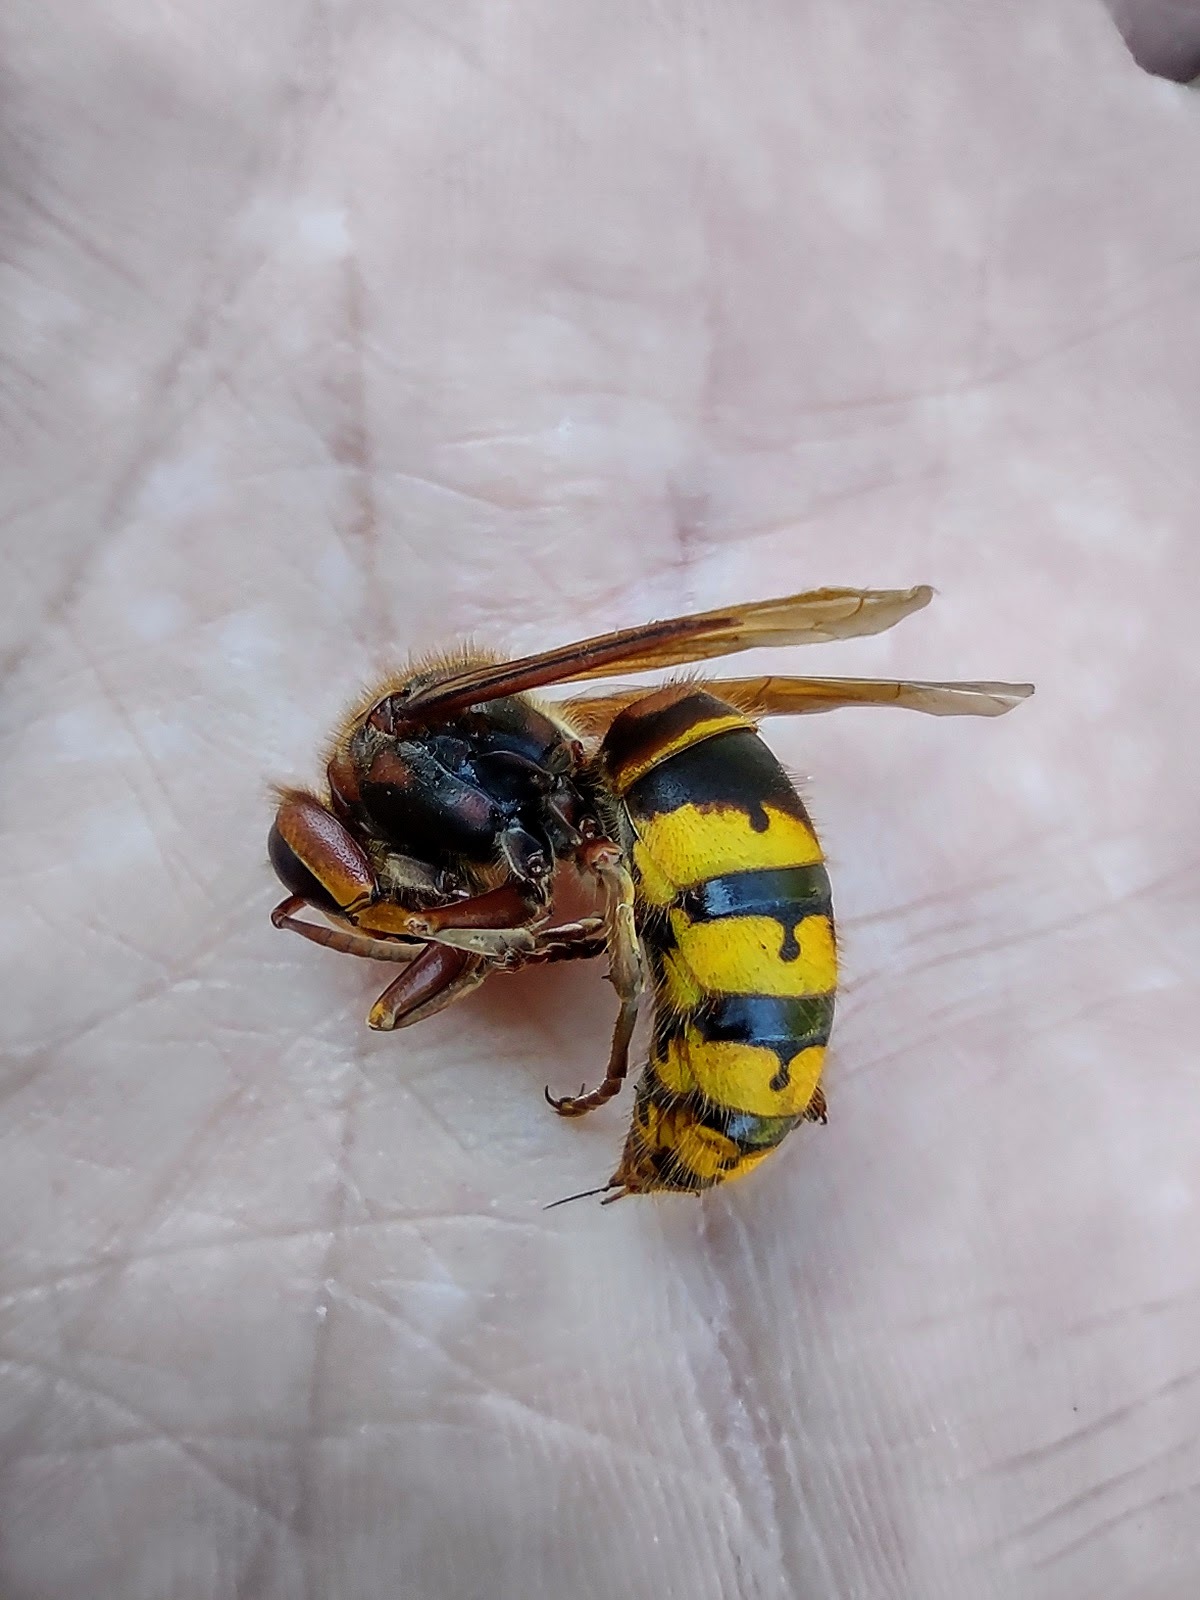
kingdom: Animalia
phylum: Arthropoda
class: Insecta
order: Hymenoptera
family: Vespidae
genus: Vespa
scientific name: Vespa crabro
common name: Hornet
